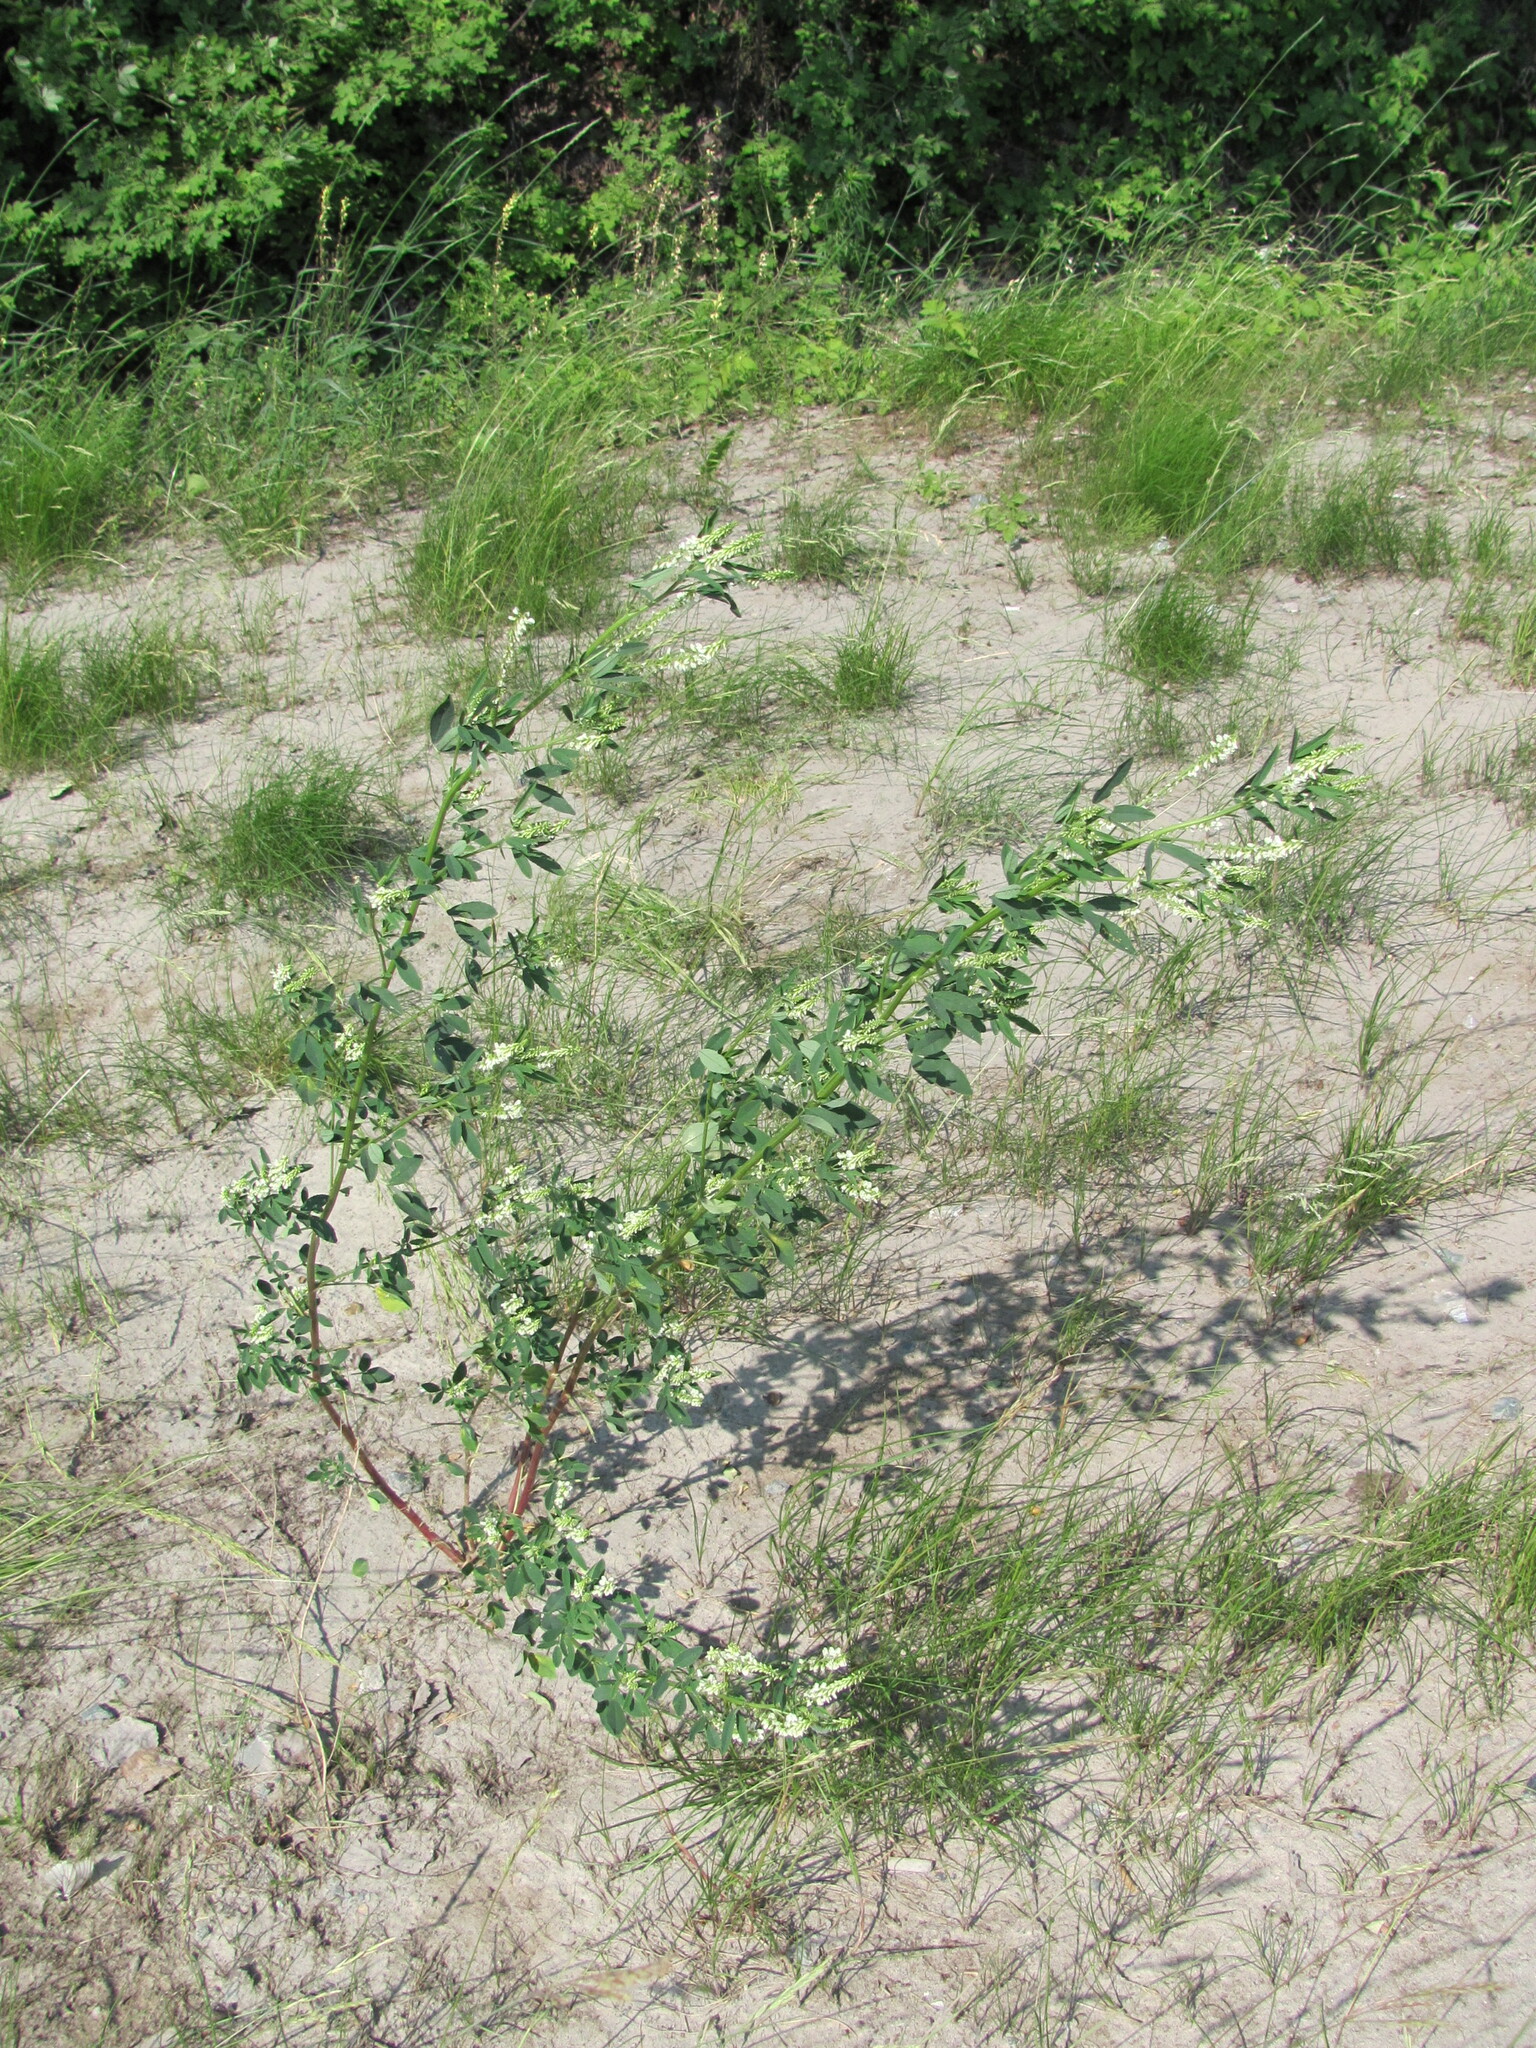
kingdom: Plantae
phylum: Tracheophyta
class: Magnoliopsida
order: Fabales
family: Fabaceae
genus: Melilotus
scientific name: Melilotus albus
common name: White melilot
